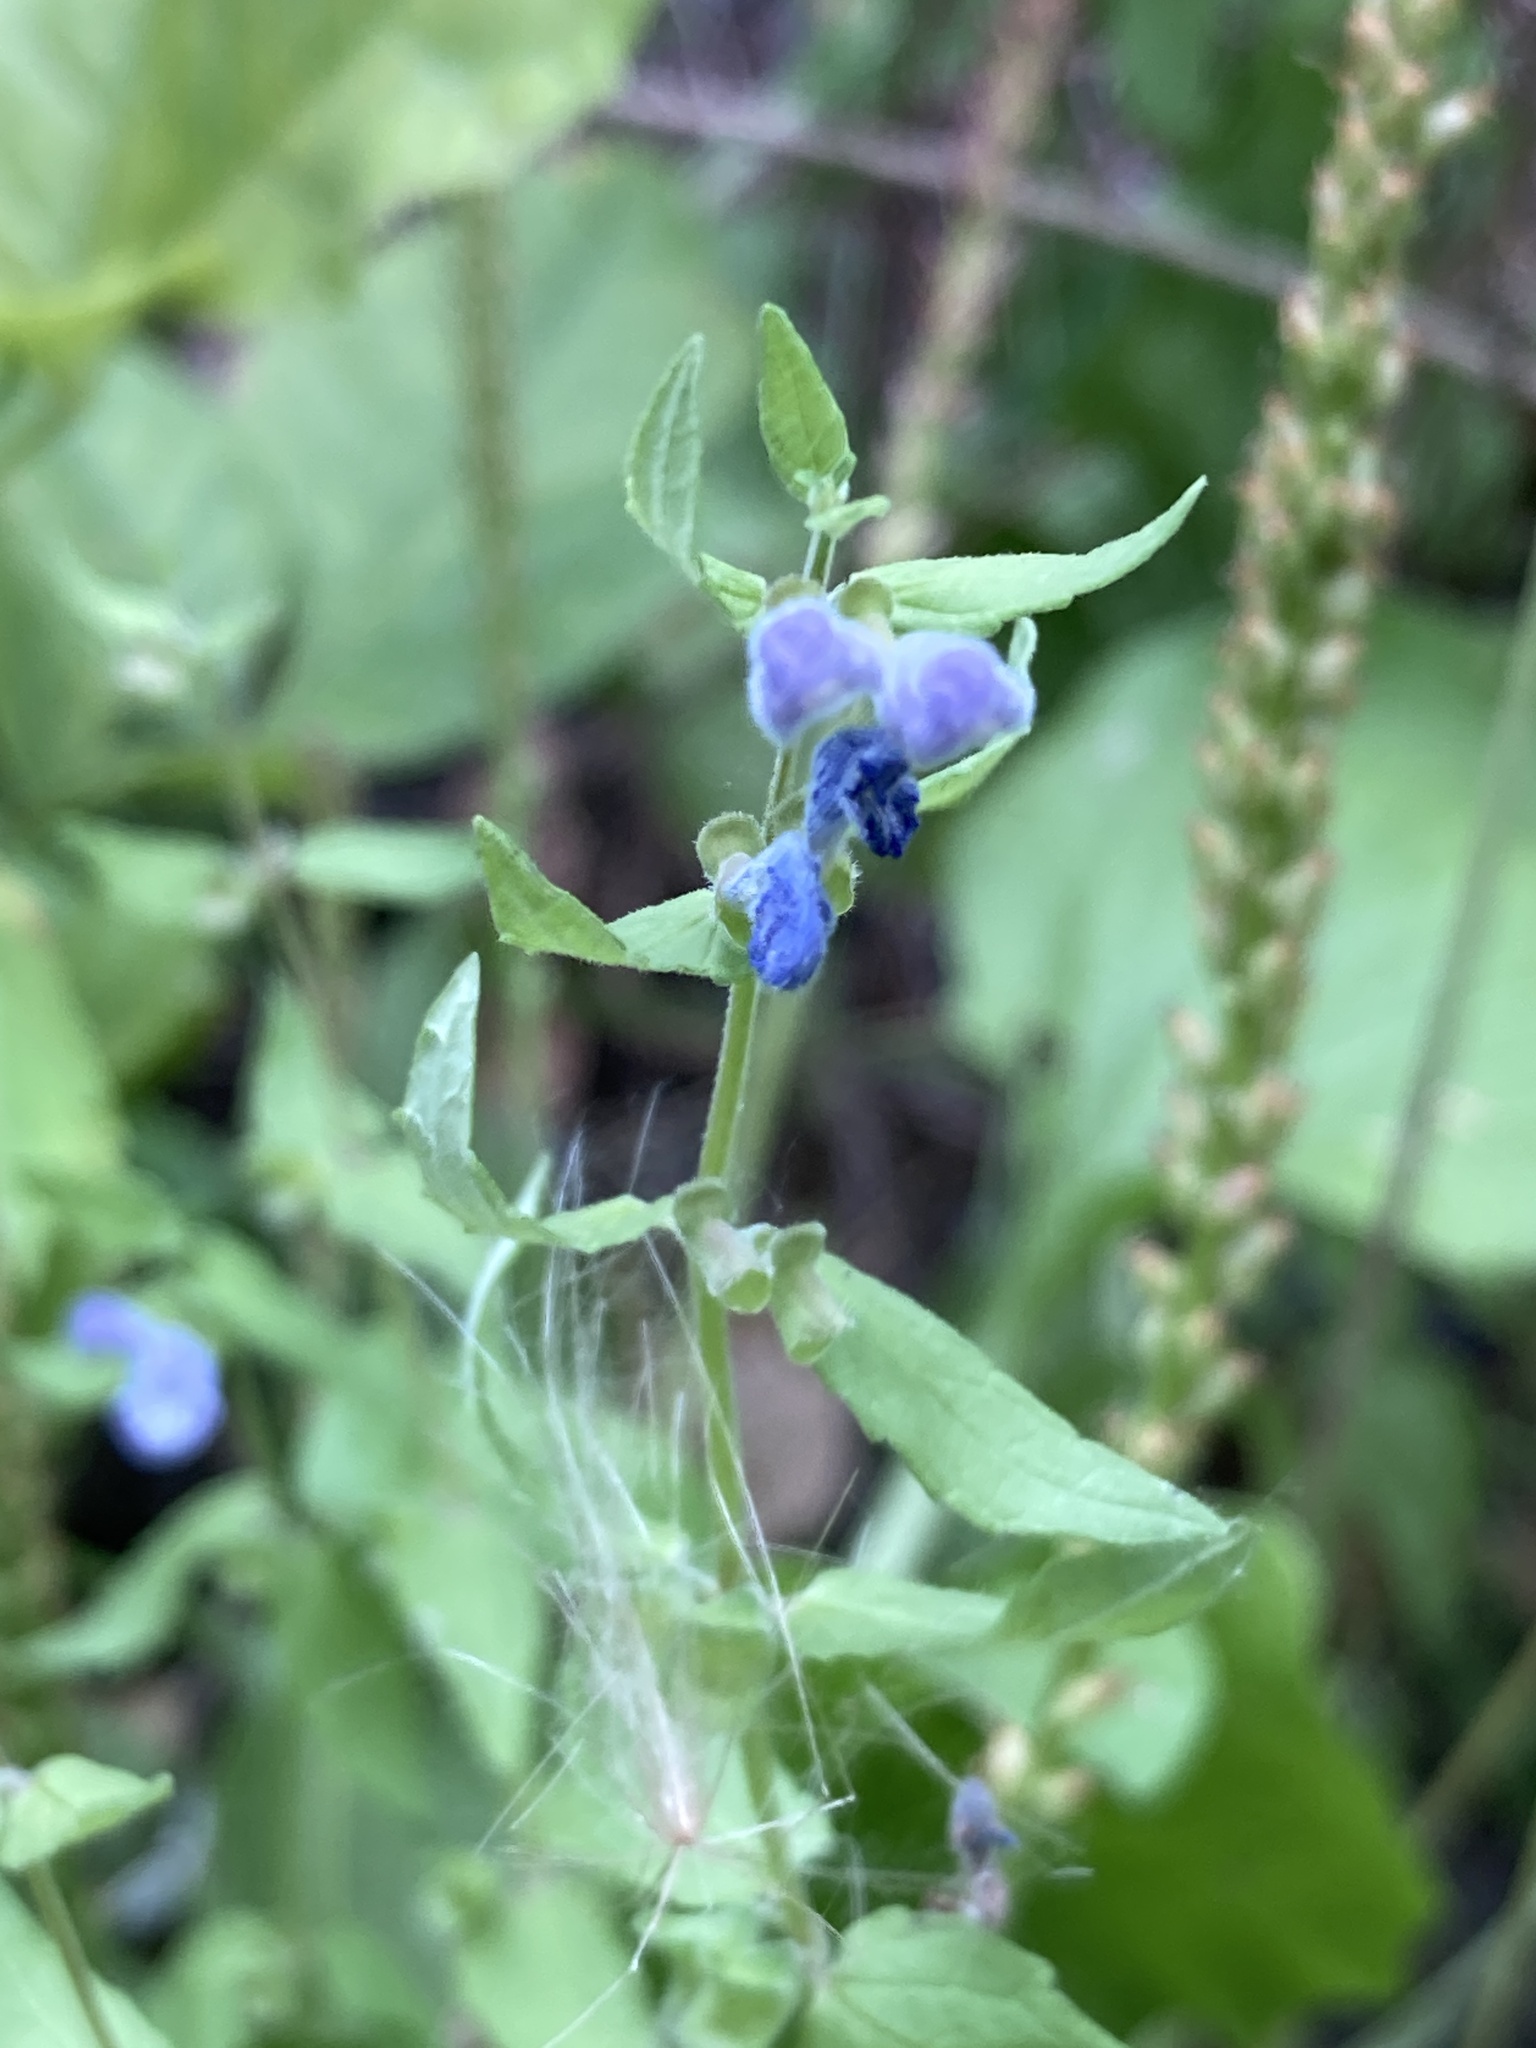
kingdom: Plantae
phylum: Tracheophyta
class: Magnoliopsida
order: Lamiales
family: Lamiaceae
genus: Scutellaria
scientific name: Scutellaria galericulata
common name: Skullcap
